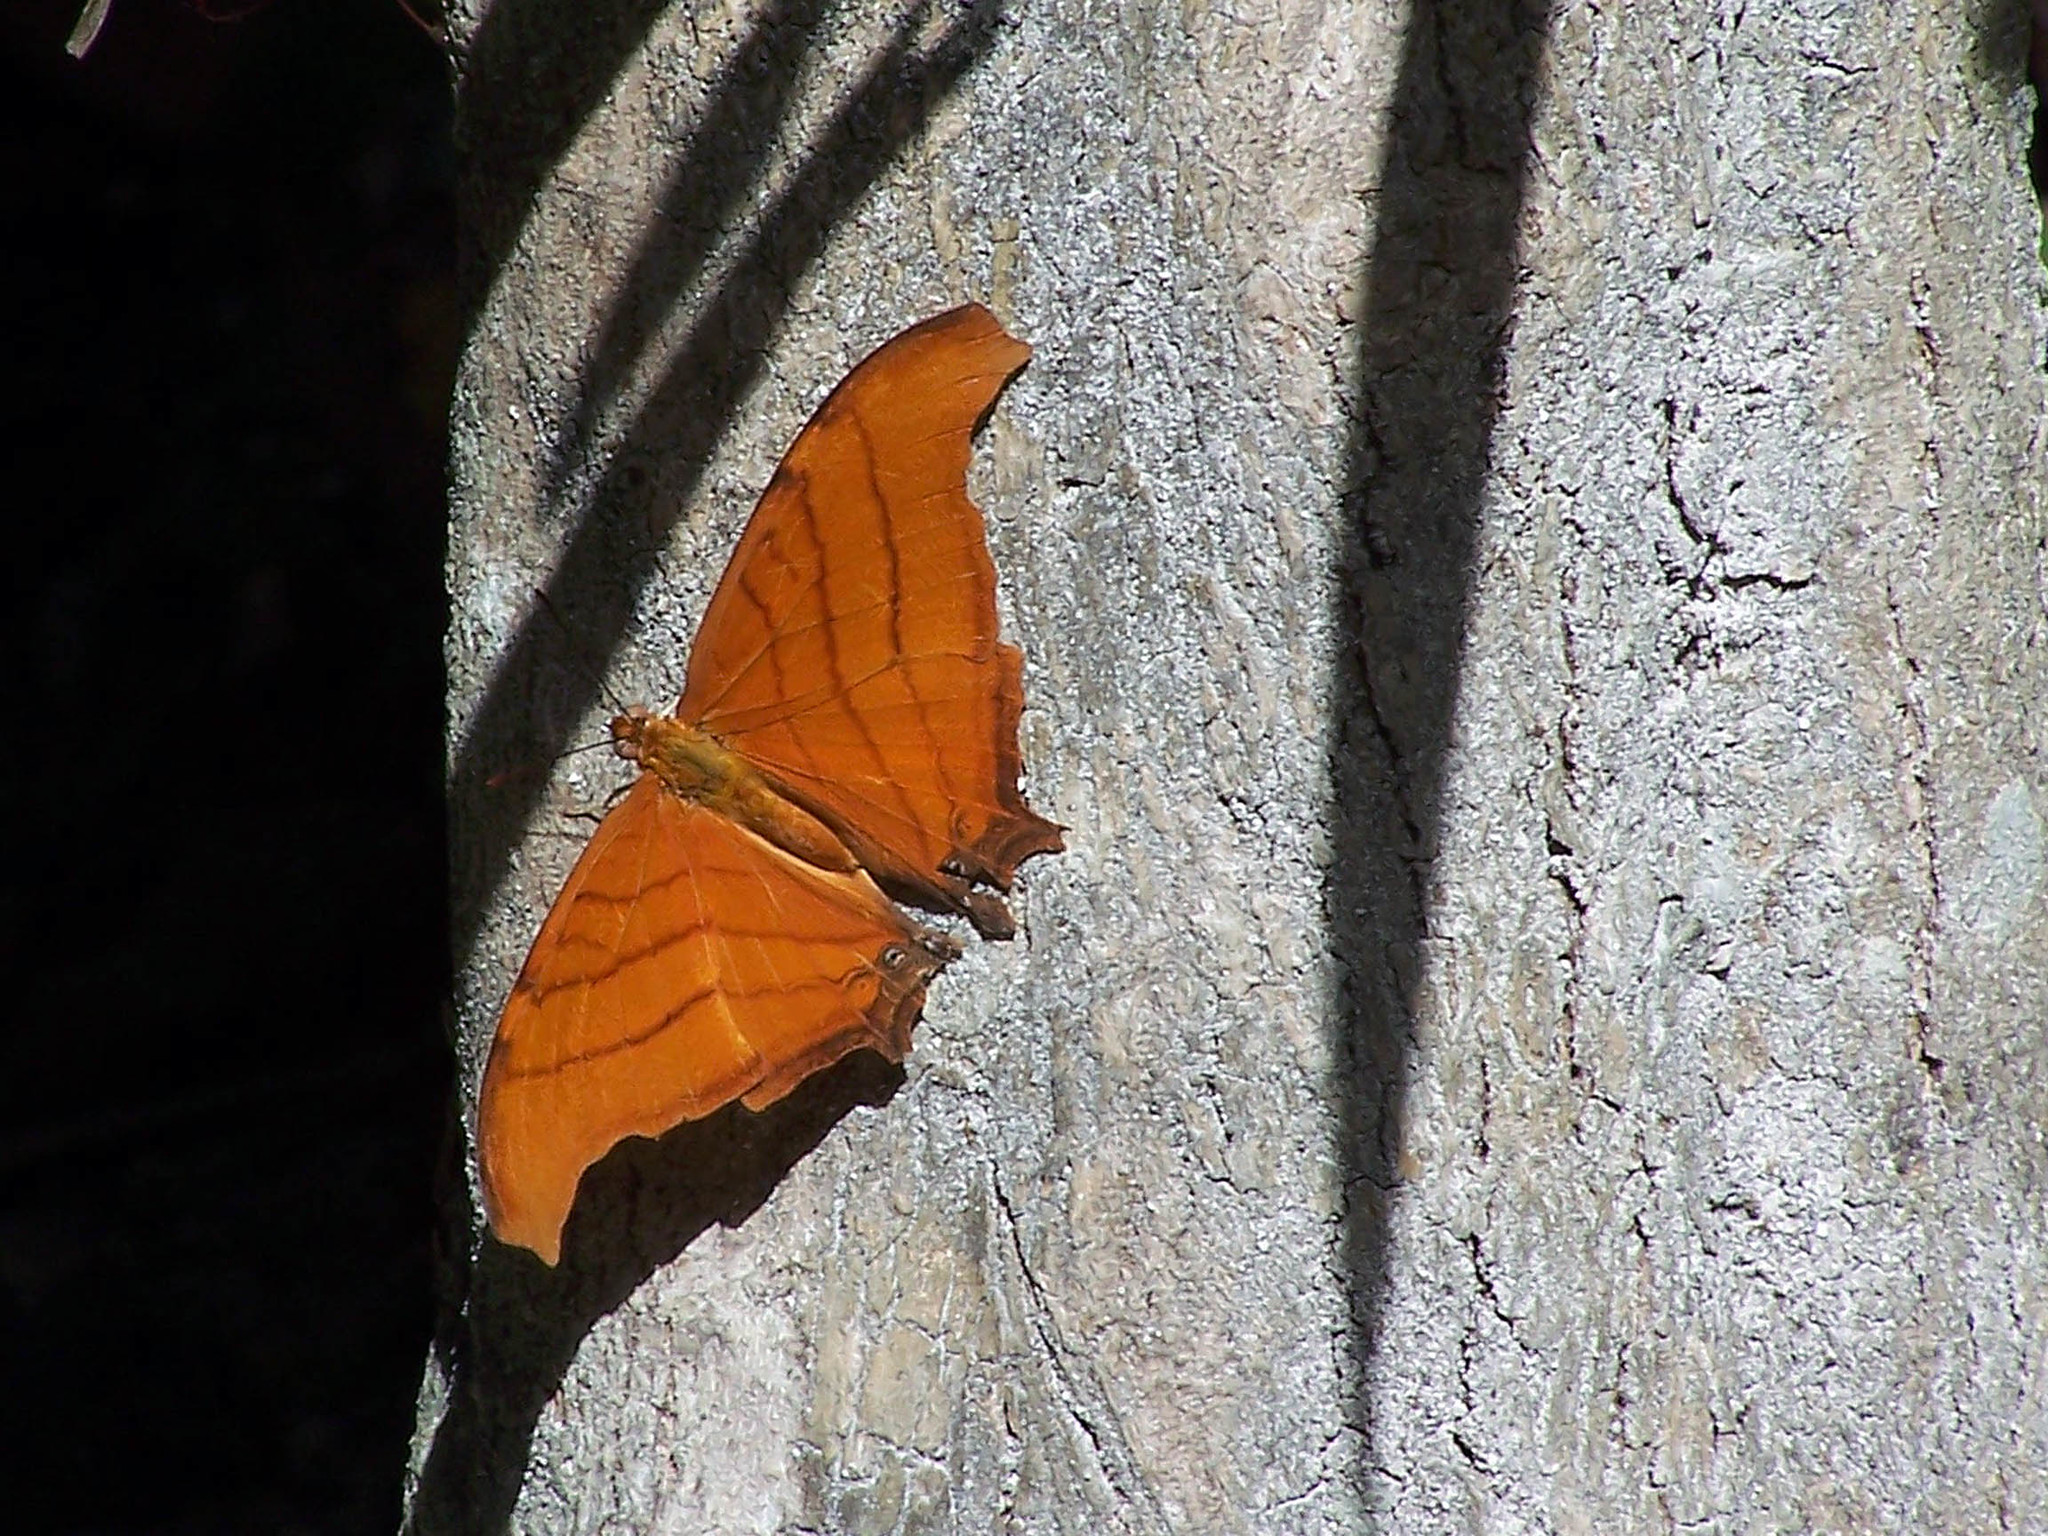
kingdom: Animalia
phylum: Arthropoda
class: Insecta
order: Lepidoptera
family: Nymphalidae
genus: Marpesia
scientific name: Marpesia petreus
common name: Red dagger wing
